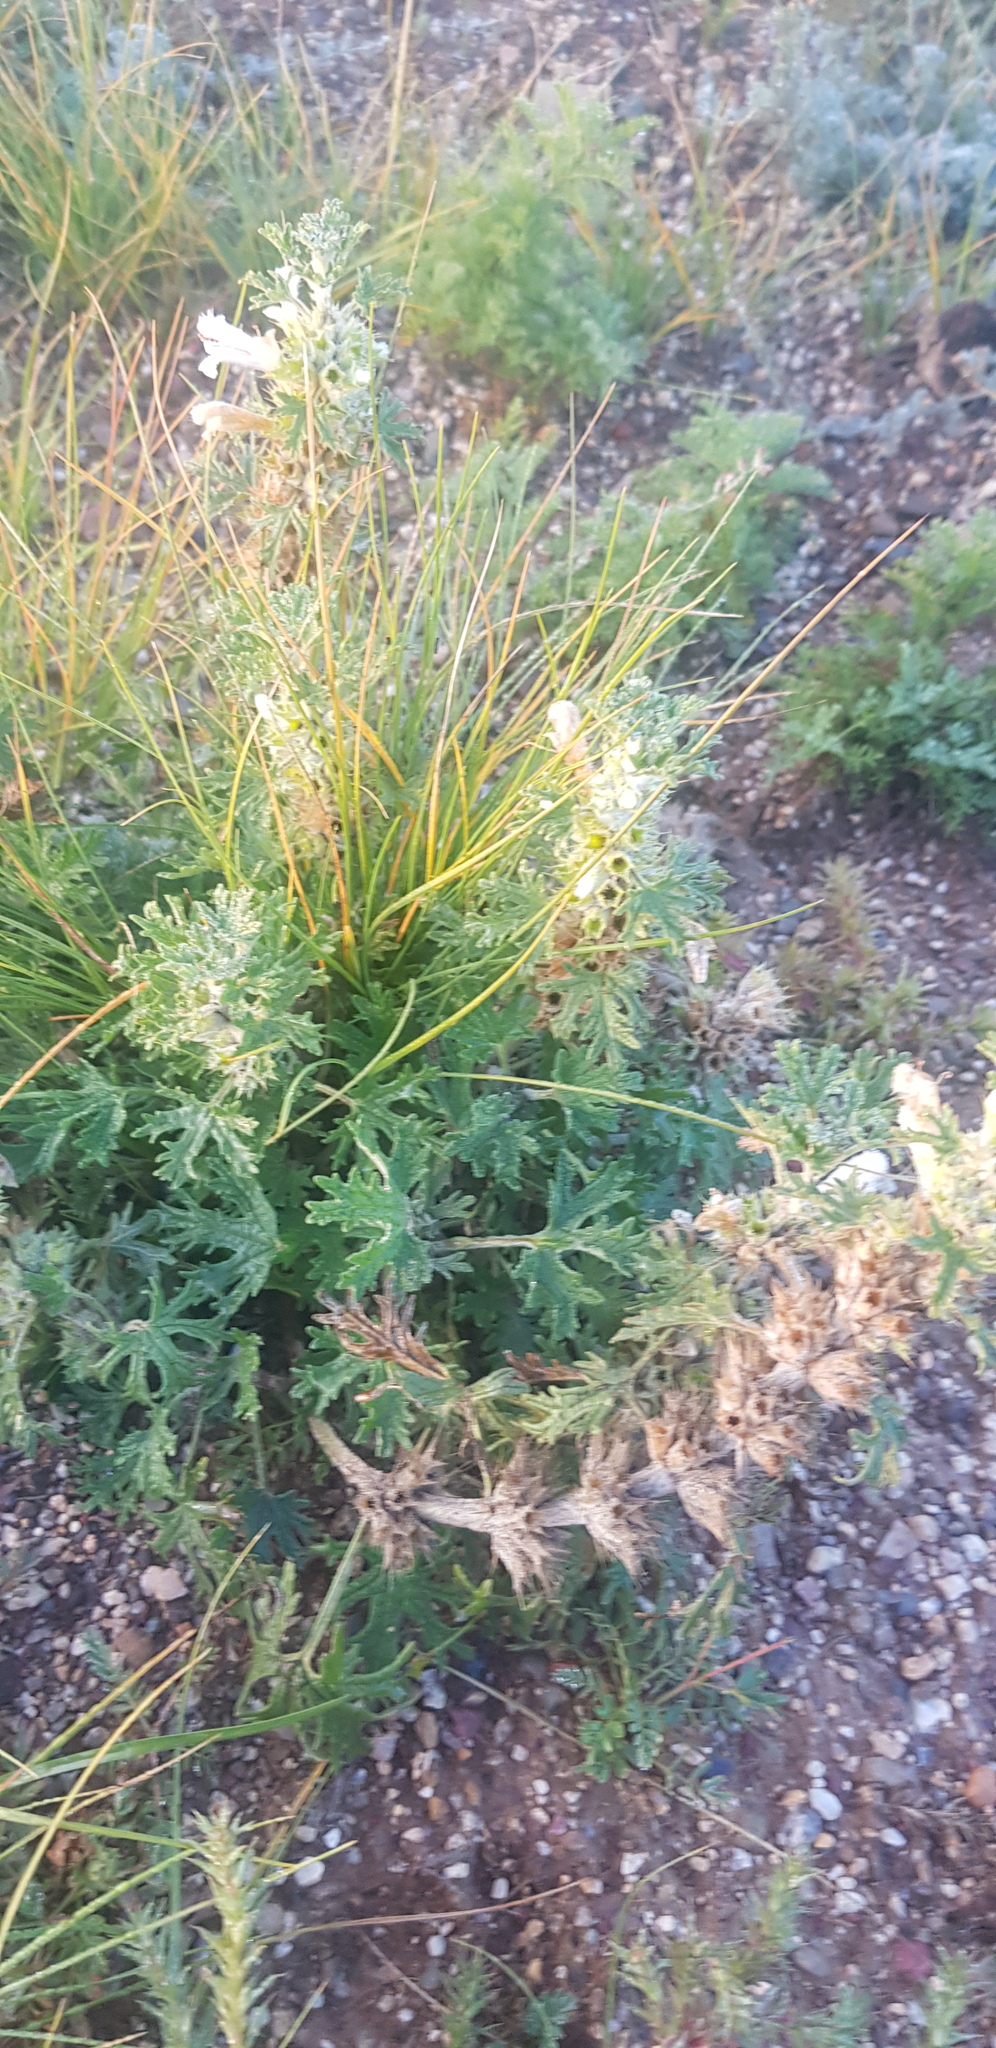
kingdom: Plantae
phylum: Tracheophyta
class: Magnoliopsida
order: Lamiales
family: Lamiaceae
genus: Panzerina
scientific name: Panzerina lanata
